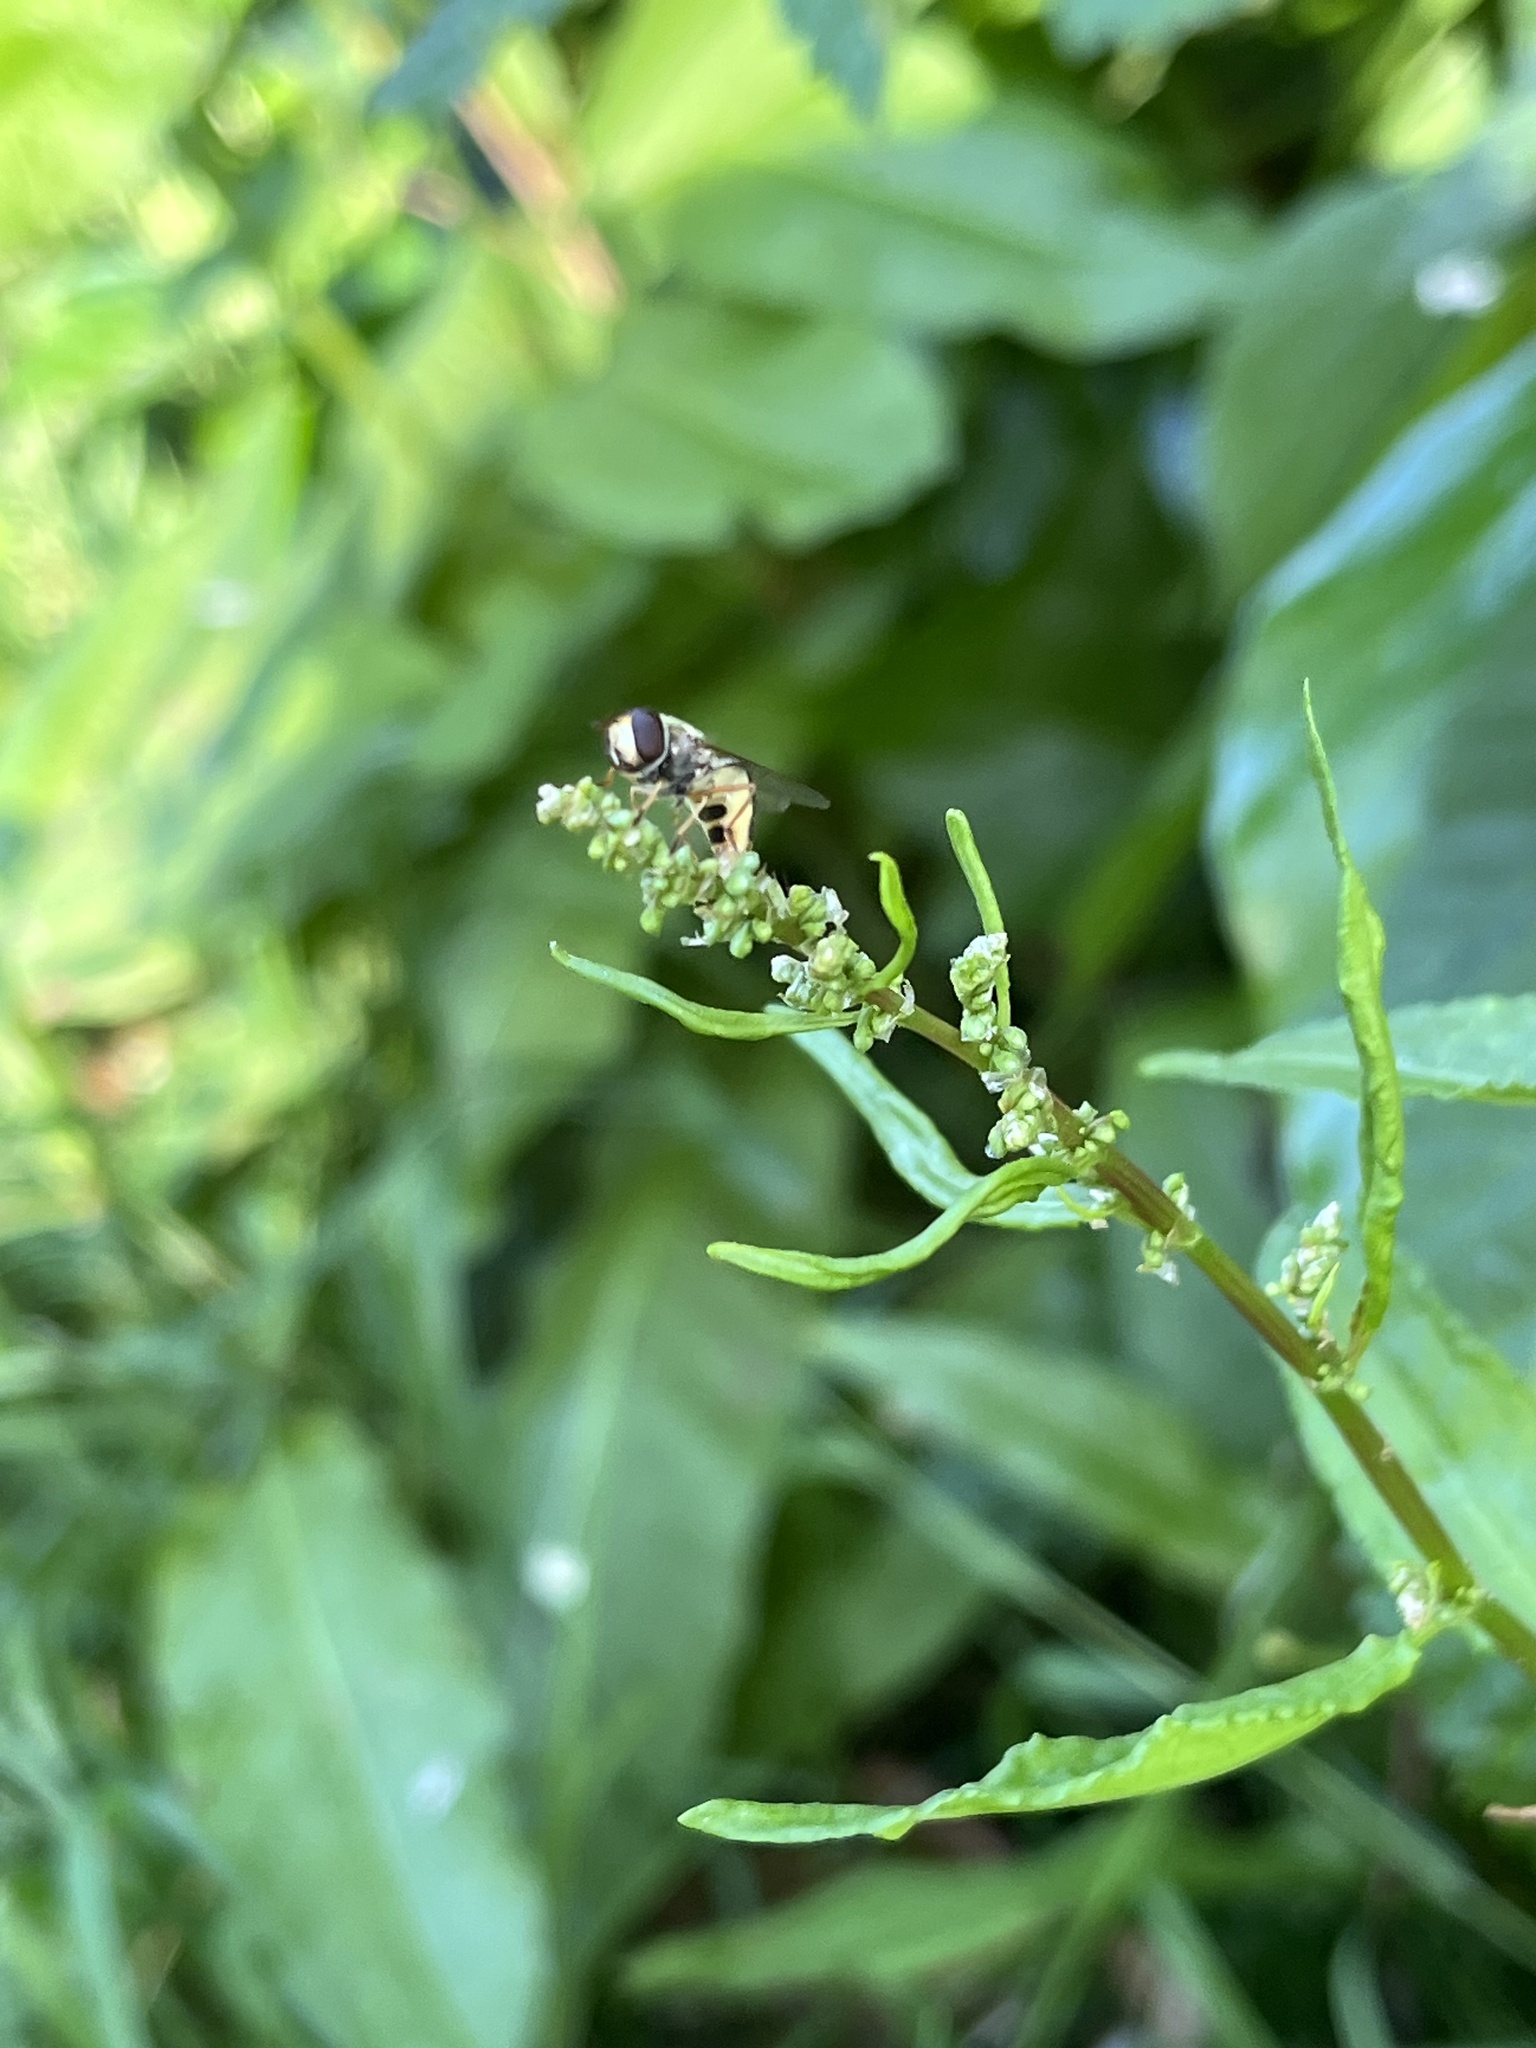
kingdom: Animalia
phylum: Arthropoda
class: Insecta
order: Diptera
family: Syrphidae
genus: Eupeodes
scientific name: Eupeodes luniger
